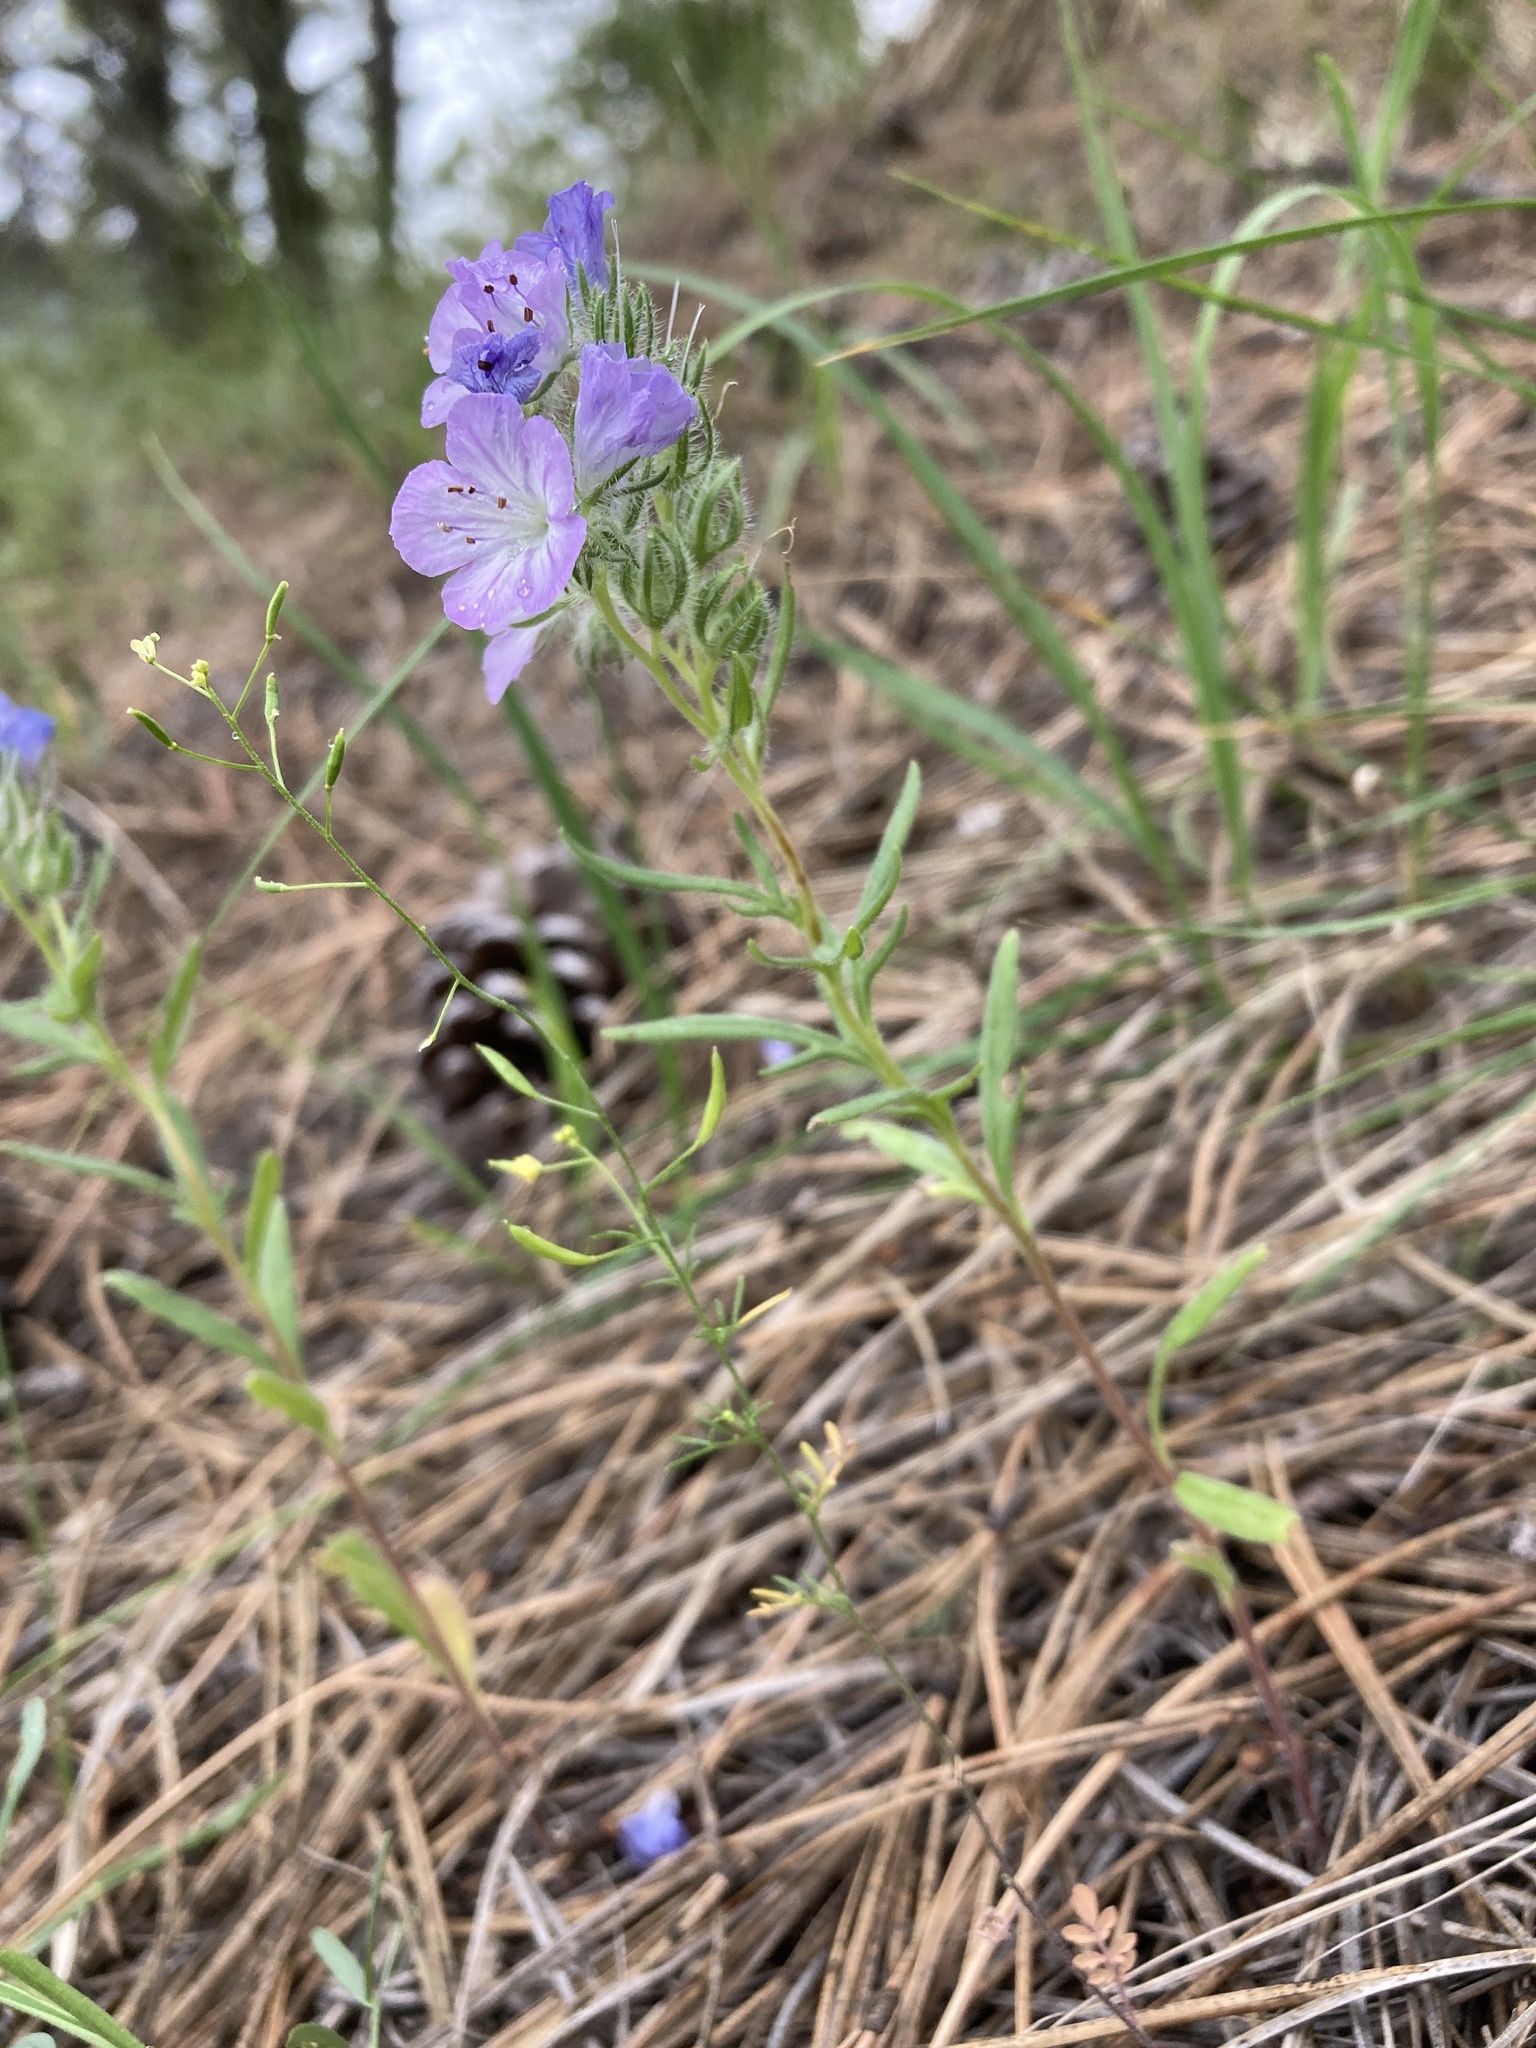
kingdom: Plantae
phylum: Tracheophyta
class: Magnoliopsida
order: Boraginales
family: Hydrophyllaceae
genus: Phacelia
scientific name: Phacelia linearis
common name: Linear-leaved phacelia
